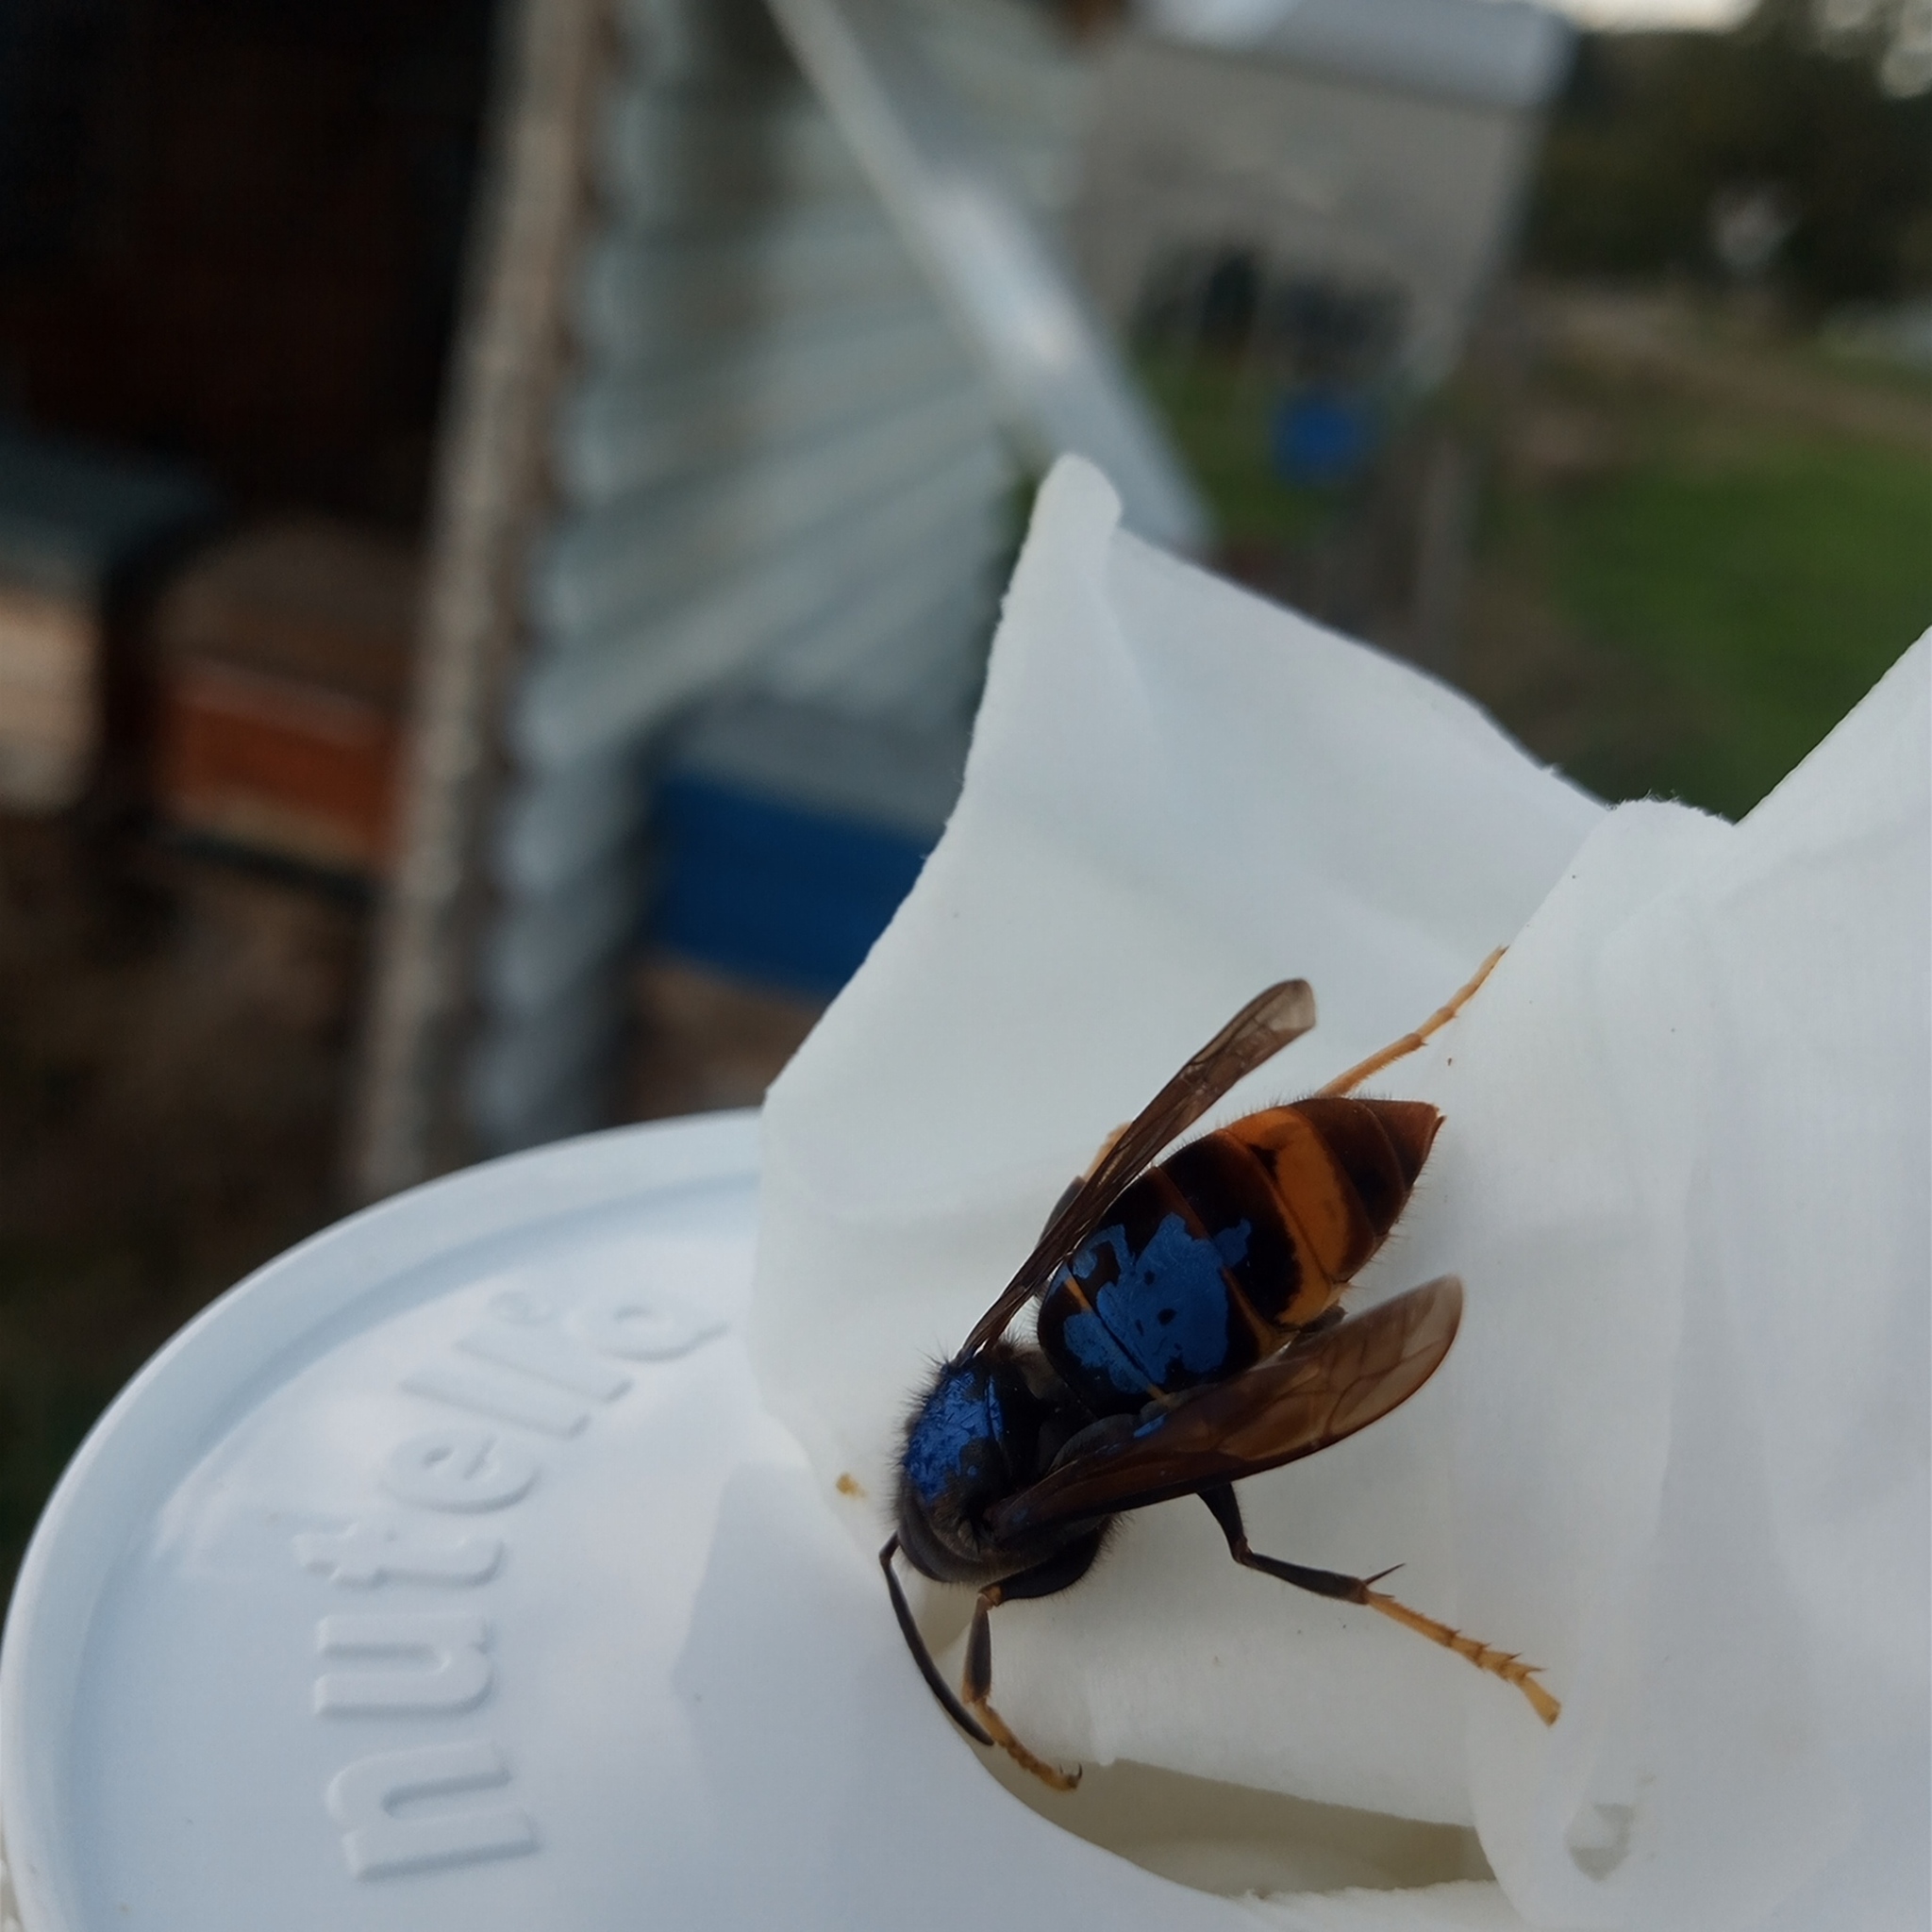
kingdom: Animalia
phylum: Arthropoda
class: Insecta
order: Hymenoptera
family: Vespidae
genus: Vespa
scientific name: Vespa velutina
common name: Asian hornet
